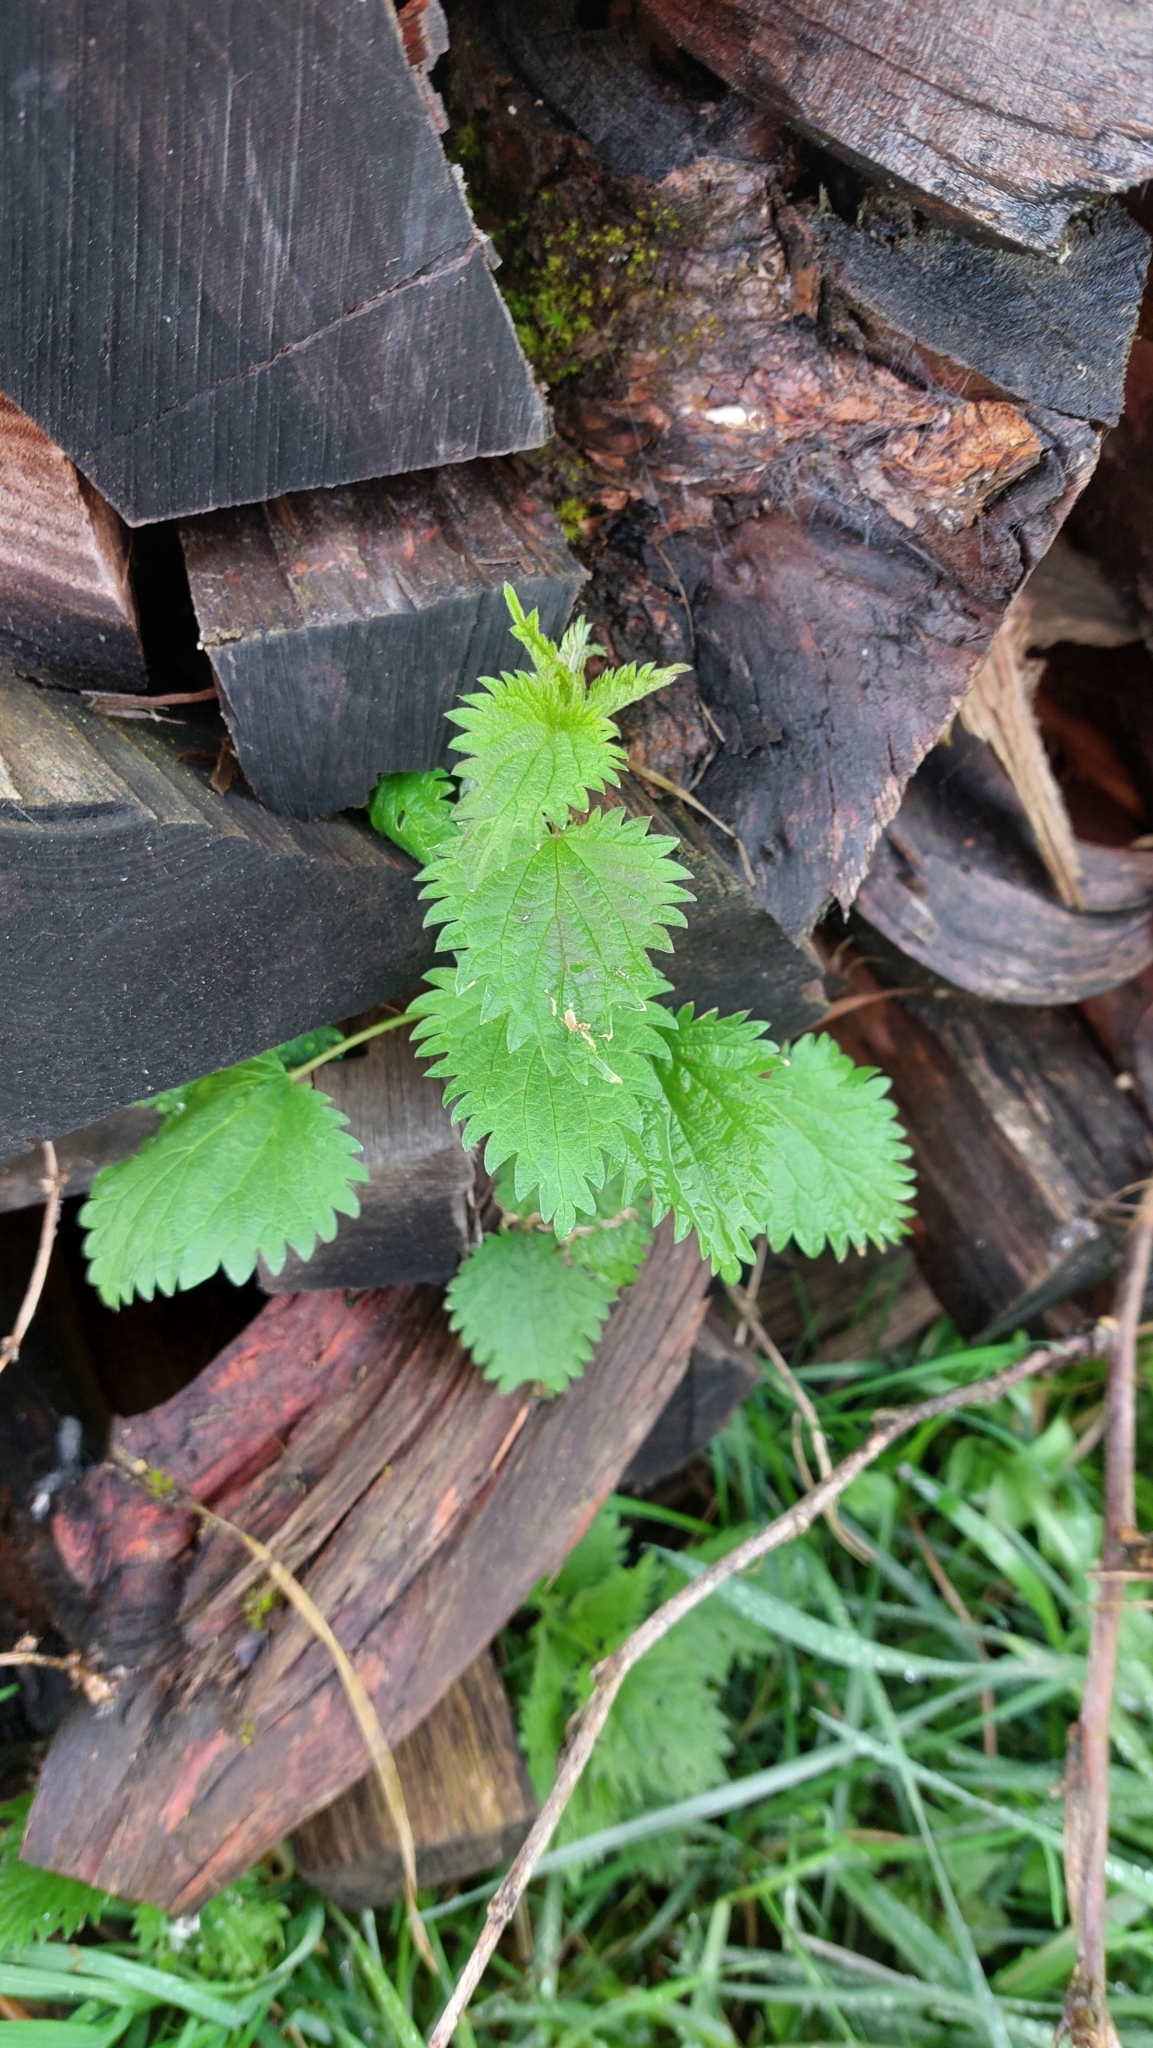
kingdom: Plantae
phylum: Tracheophyta
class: Magnoliopsida
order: Rosales
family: Urticaceae
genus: Urtica
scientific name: Urtica dioica
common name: Common nettle
